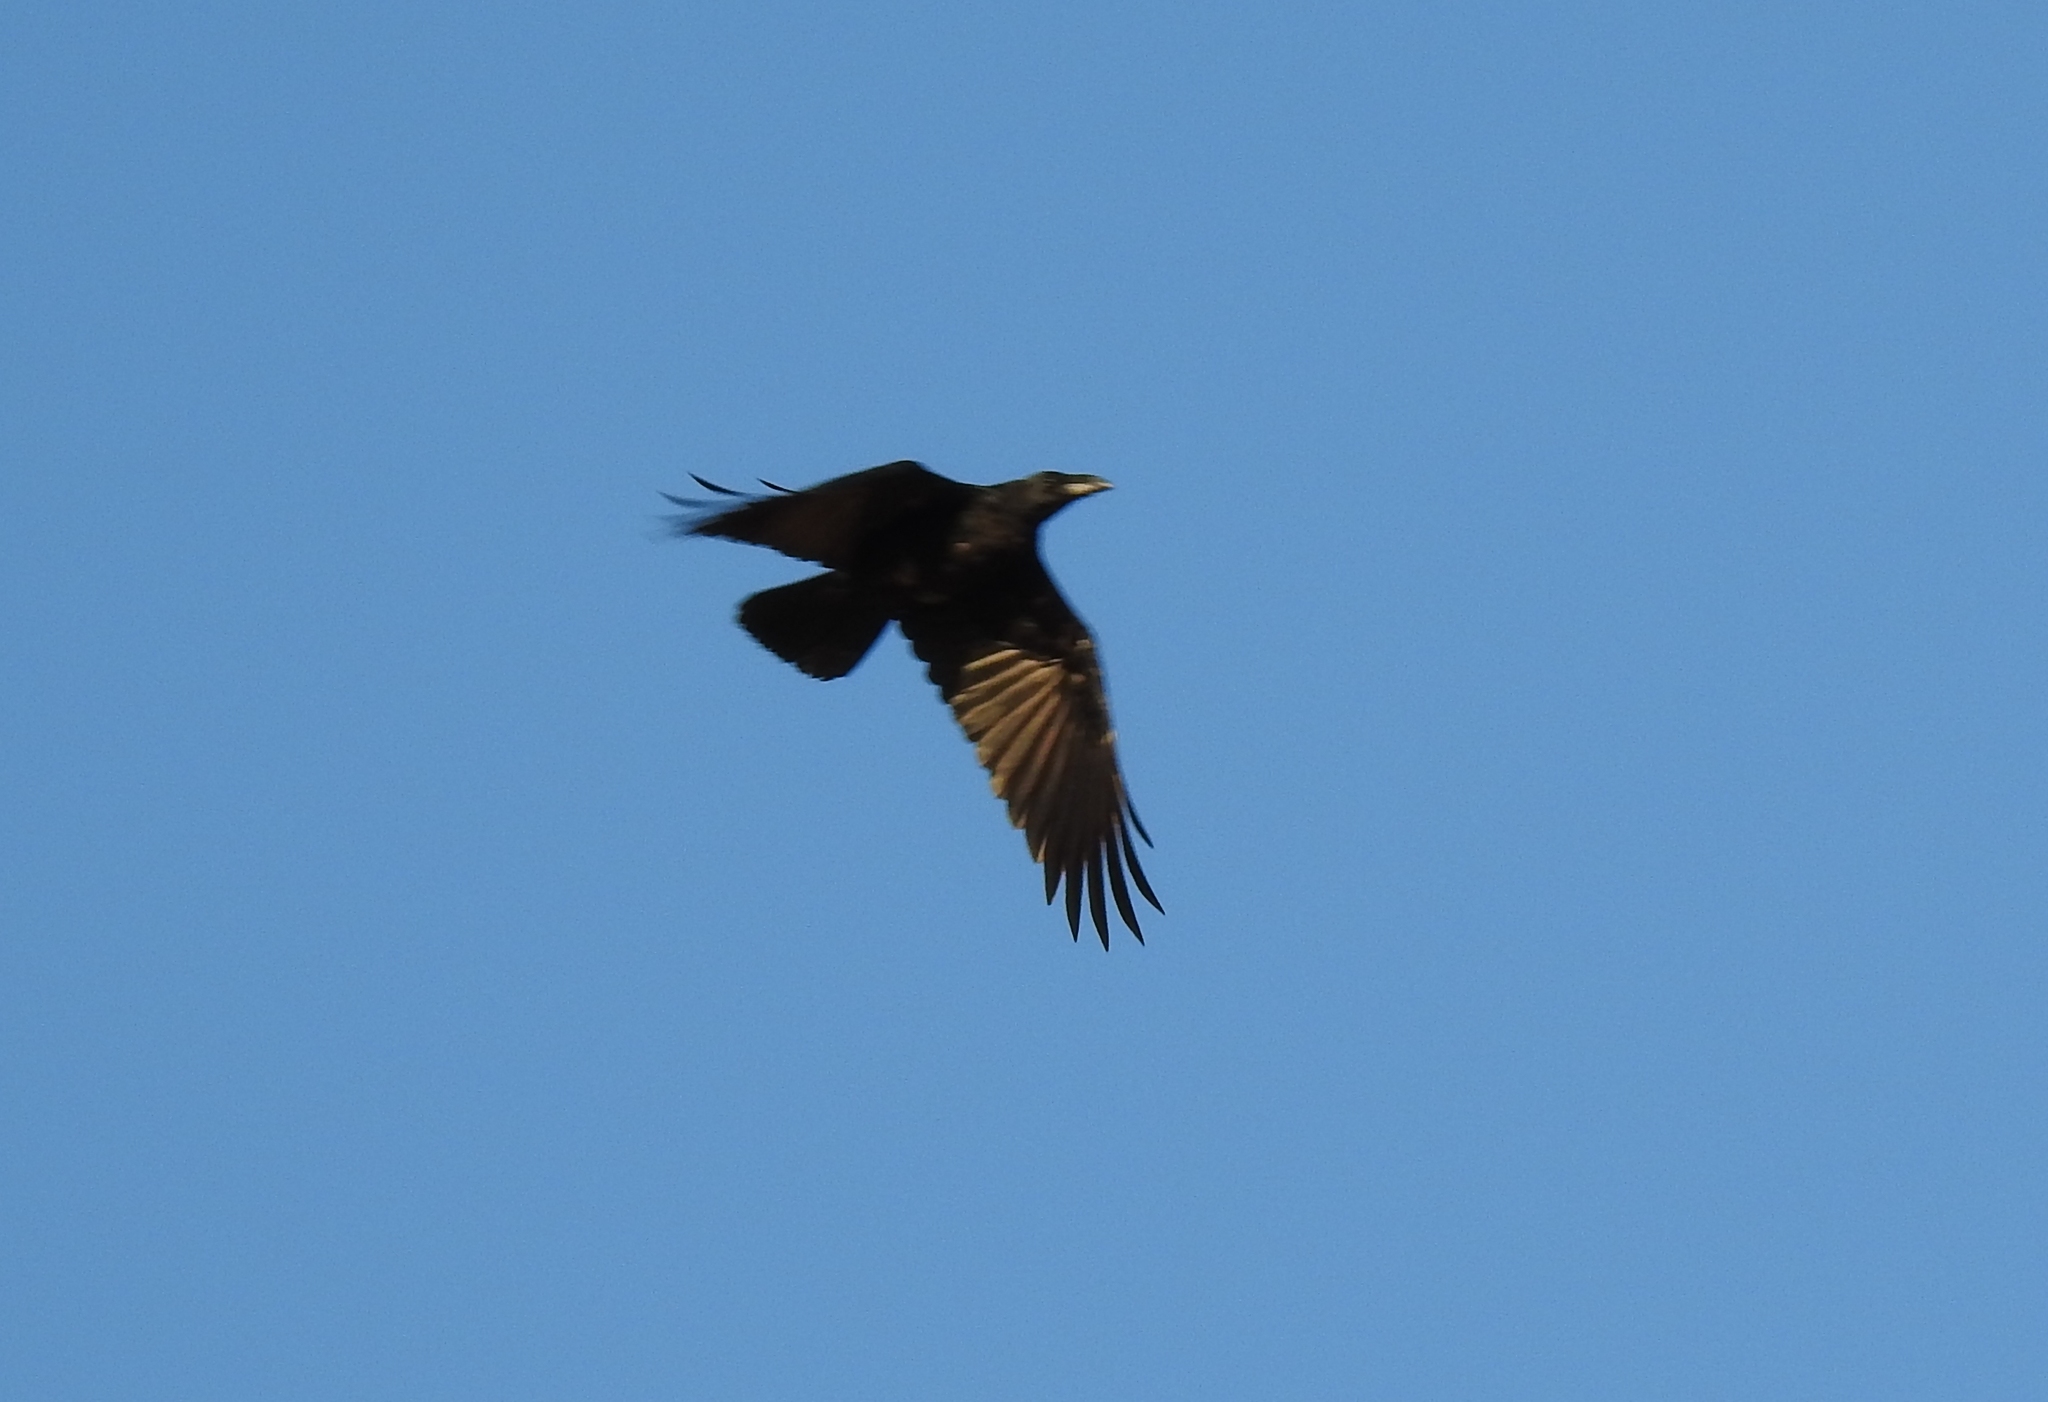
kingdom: Animalia
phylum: Chordata
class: Aves
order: Passeriformes
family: Corvidae
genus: Corvus
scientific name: Corvus corax
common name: Common raven
